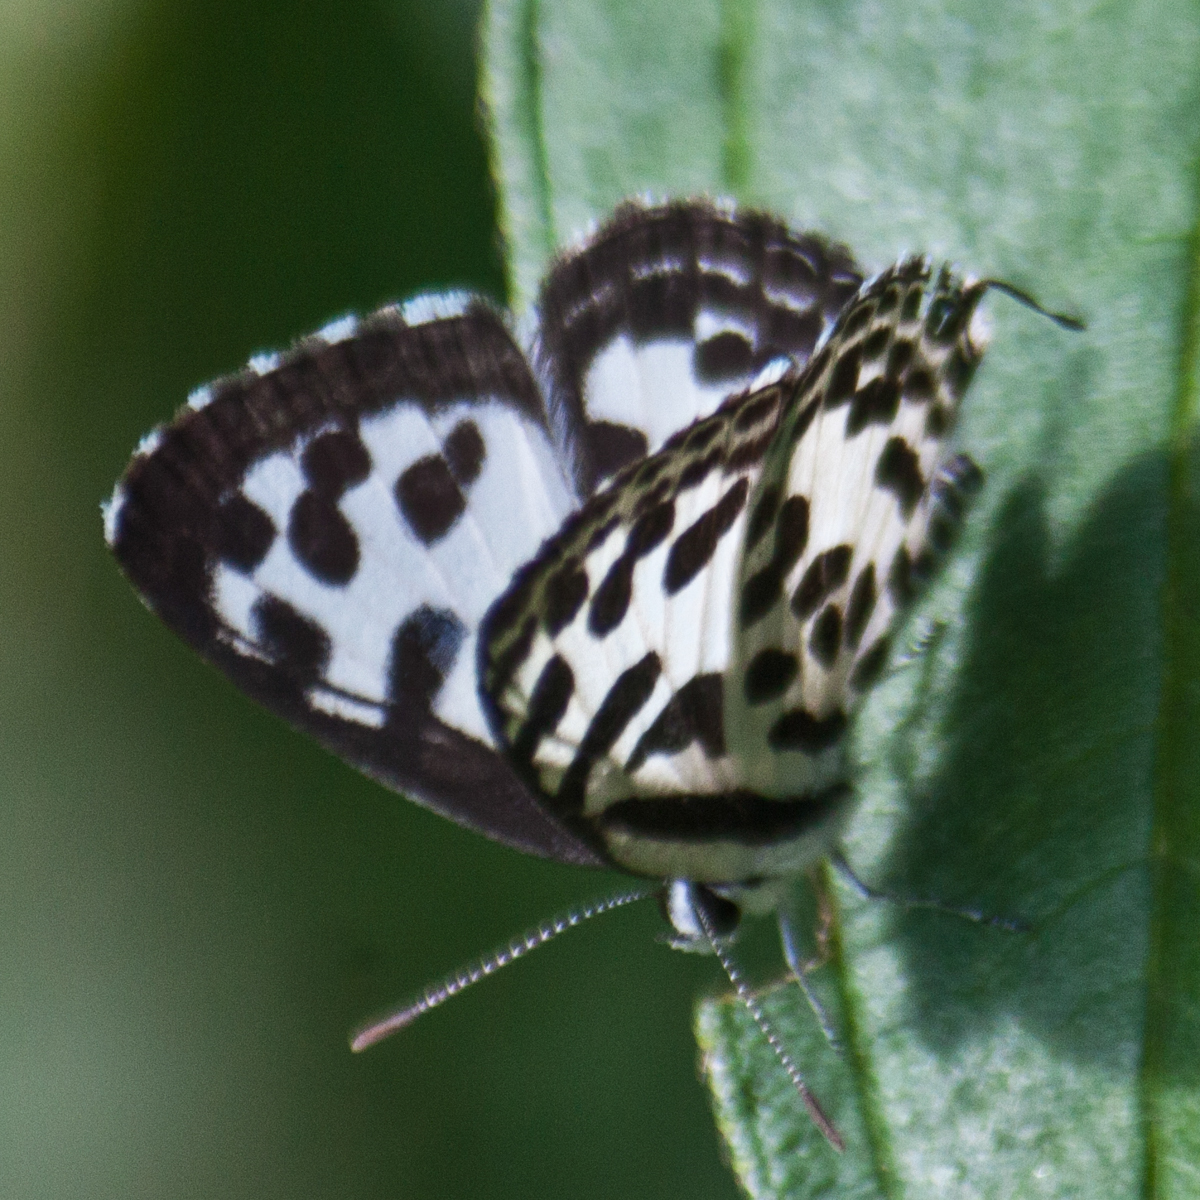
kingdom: Animalia
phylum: Arthropoda
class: Insecta
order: Lepidoptera
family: Lycaenidae
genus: Castalius
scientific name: Castalius rosimon
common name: Common pierrot
